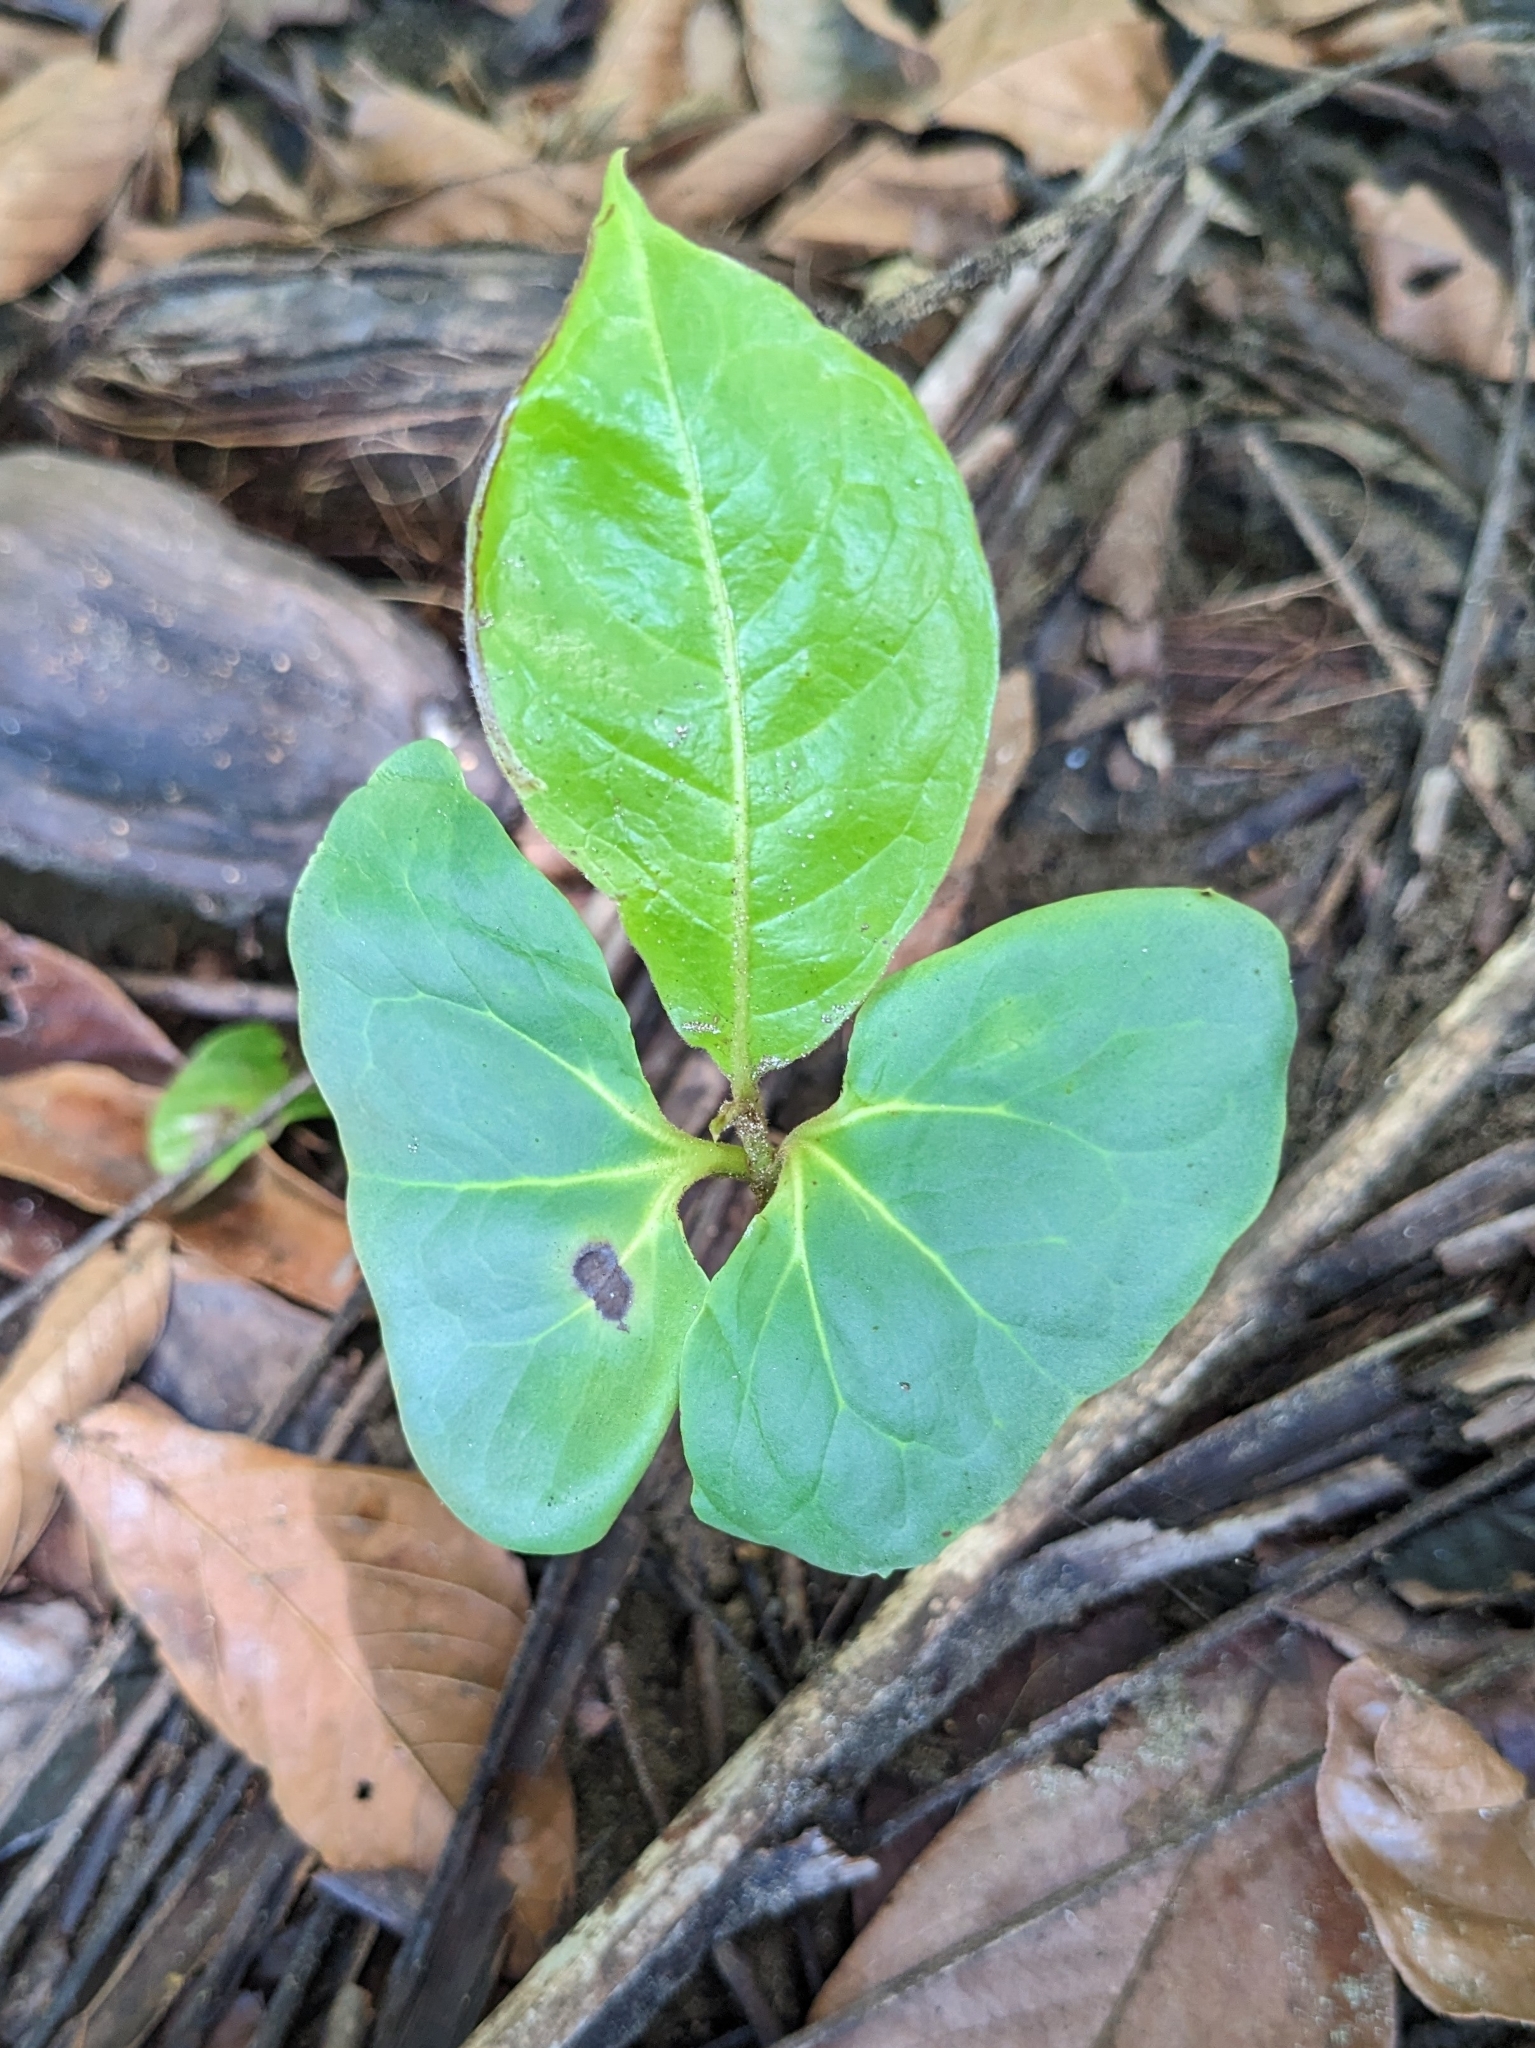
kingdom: Plantae
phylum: Tracheophyta
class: Magnoliopsida
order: Myrtales
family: Combretaceae
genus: Terminalia
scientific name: Terminalia catappa
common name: Tropical almond
